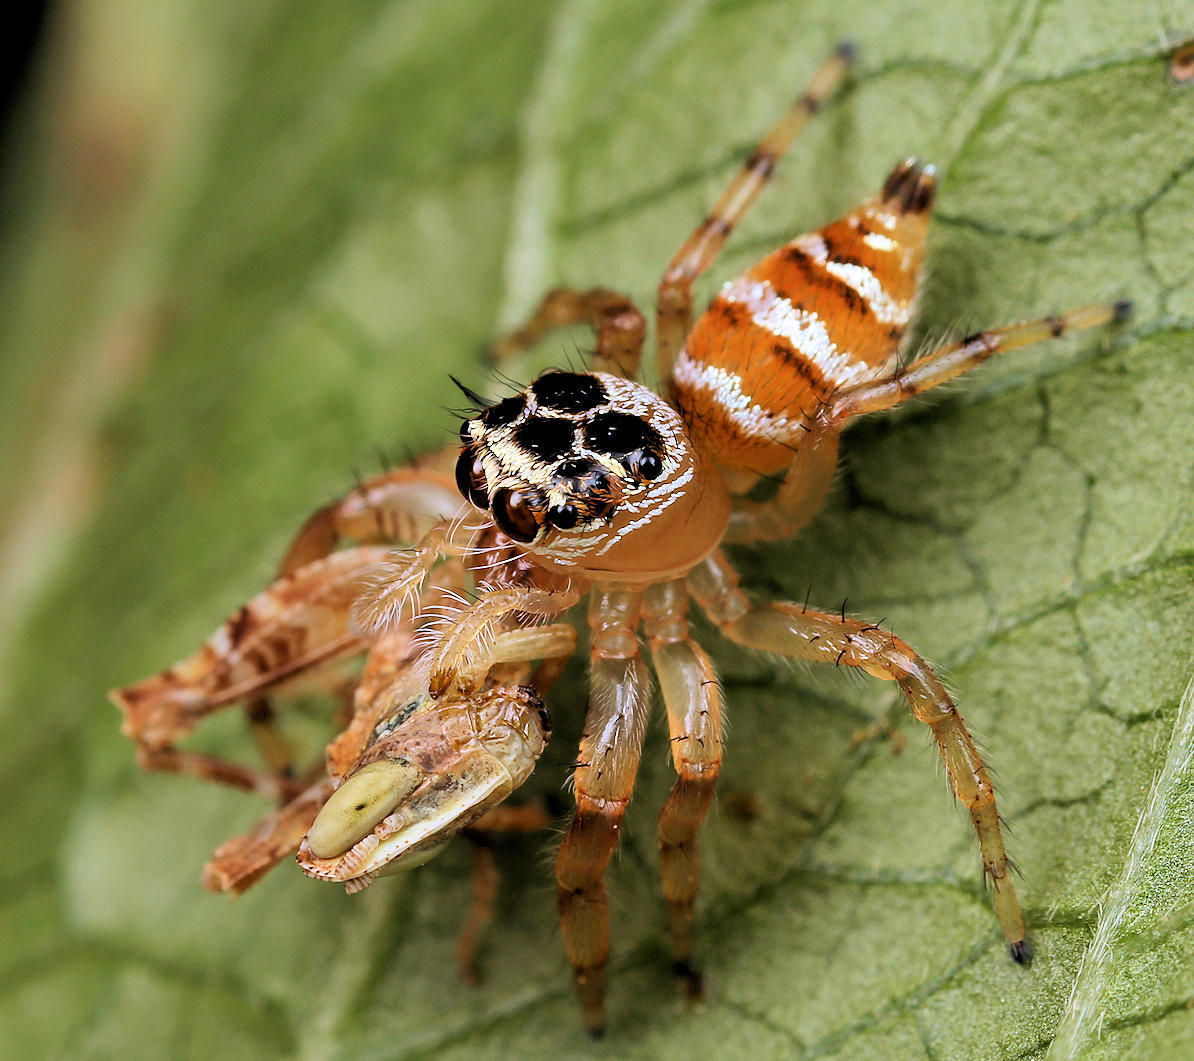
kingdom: Animalia
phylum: Arthropoda
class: Arachnida
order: Araneae
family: Salticidae
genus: Thyene
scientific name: Thyene natalii
